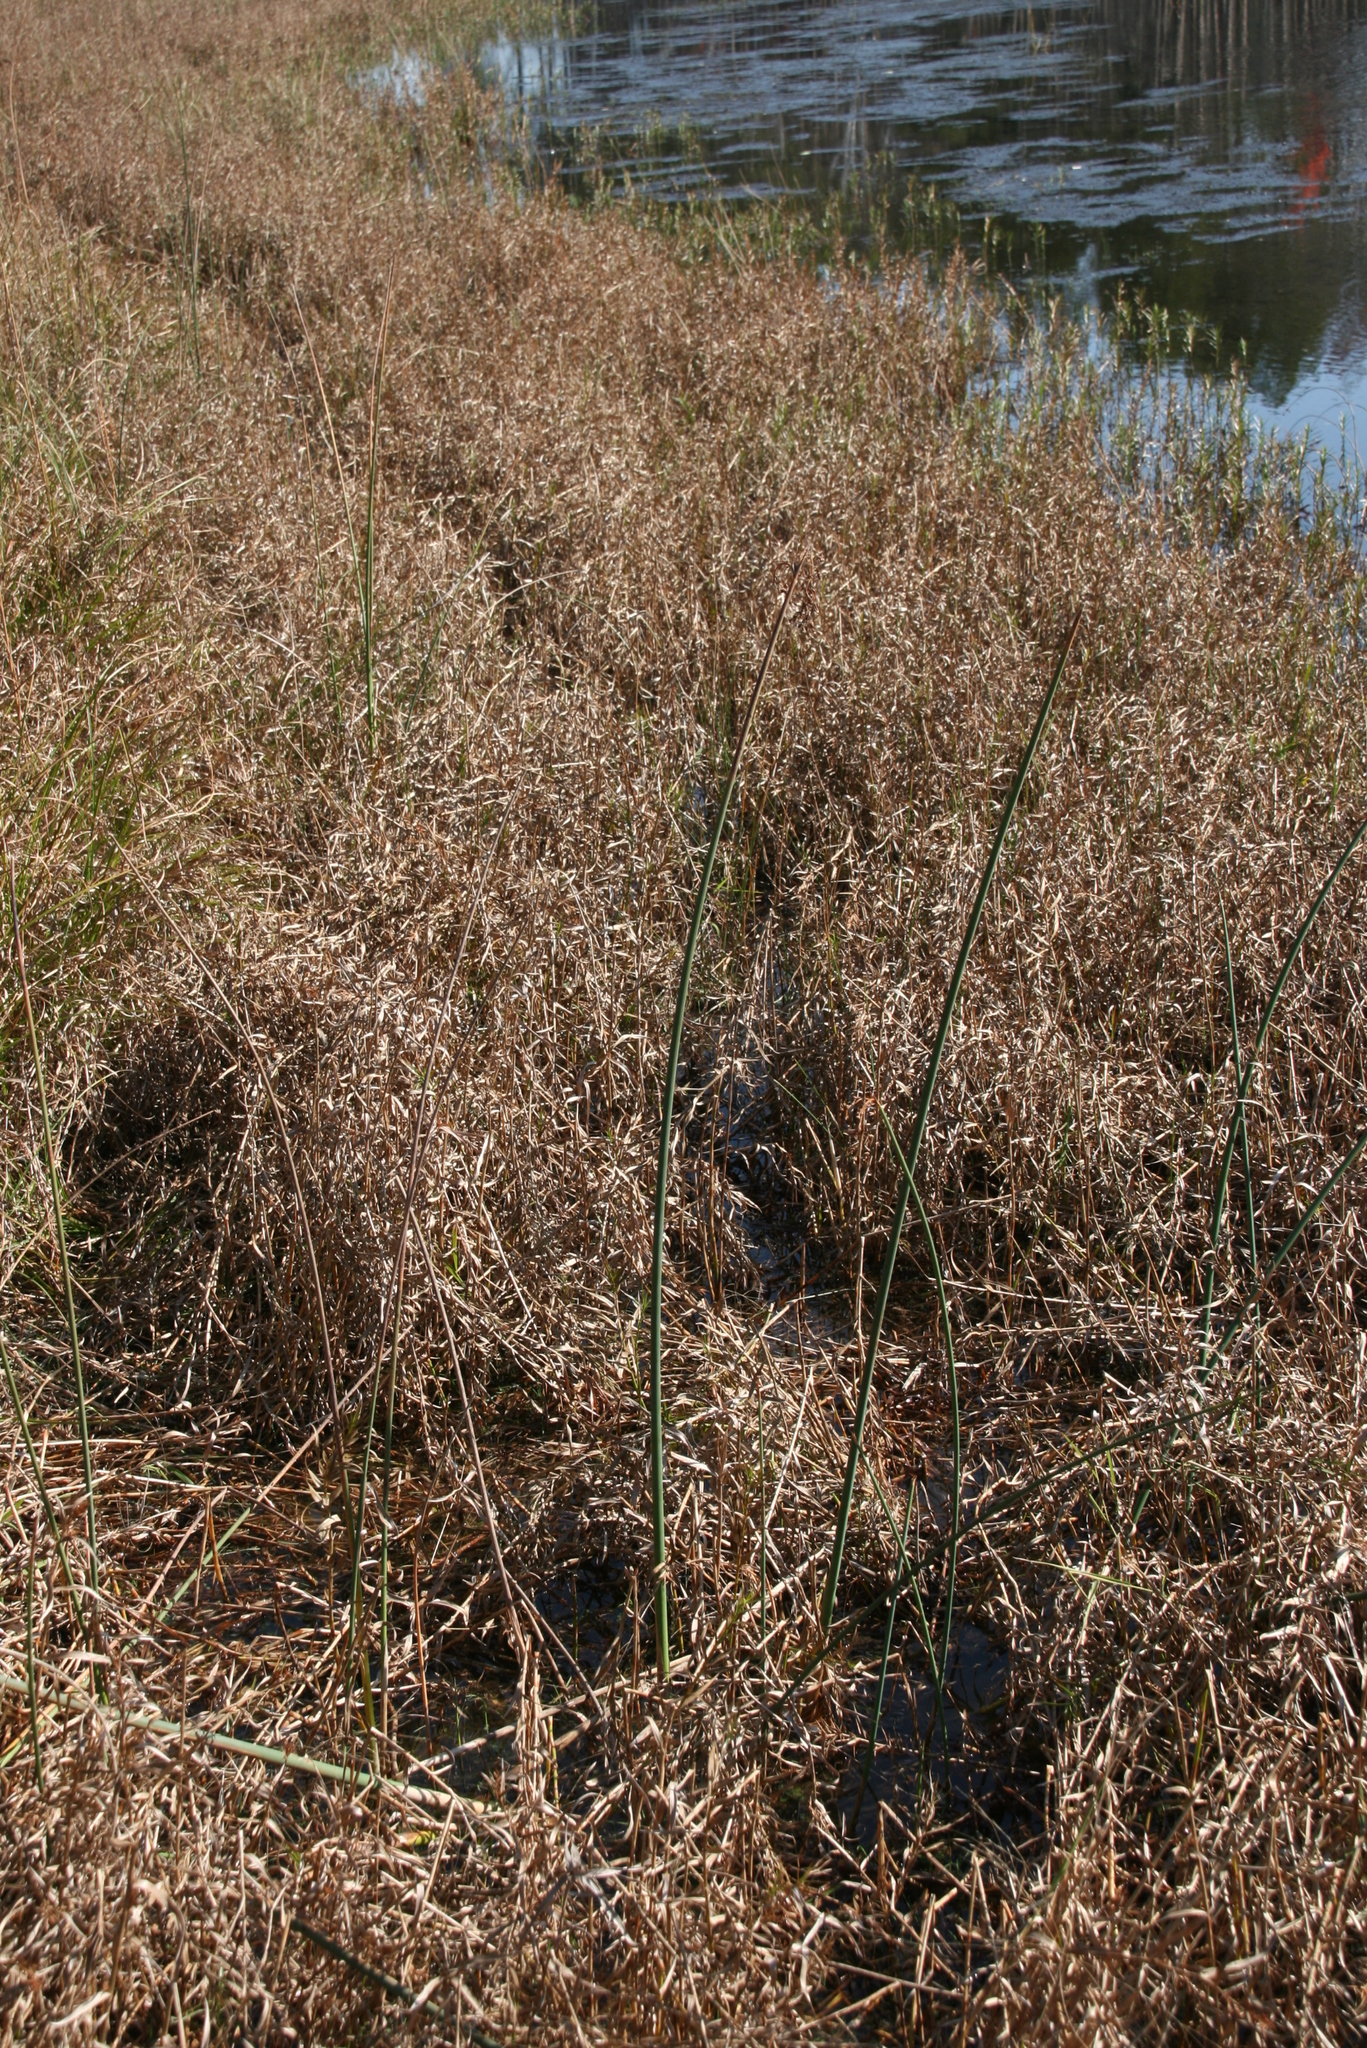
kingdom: Plantae
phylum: Tracheophyta
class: Liliopsida
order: Poales
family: Cyperaceae
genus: Schoenoplectus
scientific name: Schoenoplectus tabernaemontani
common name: Grey club-rush
